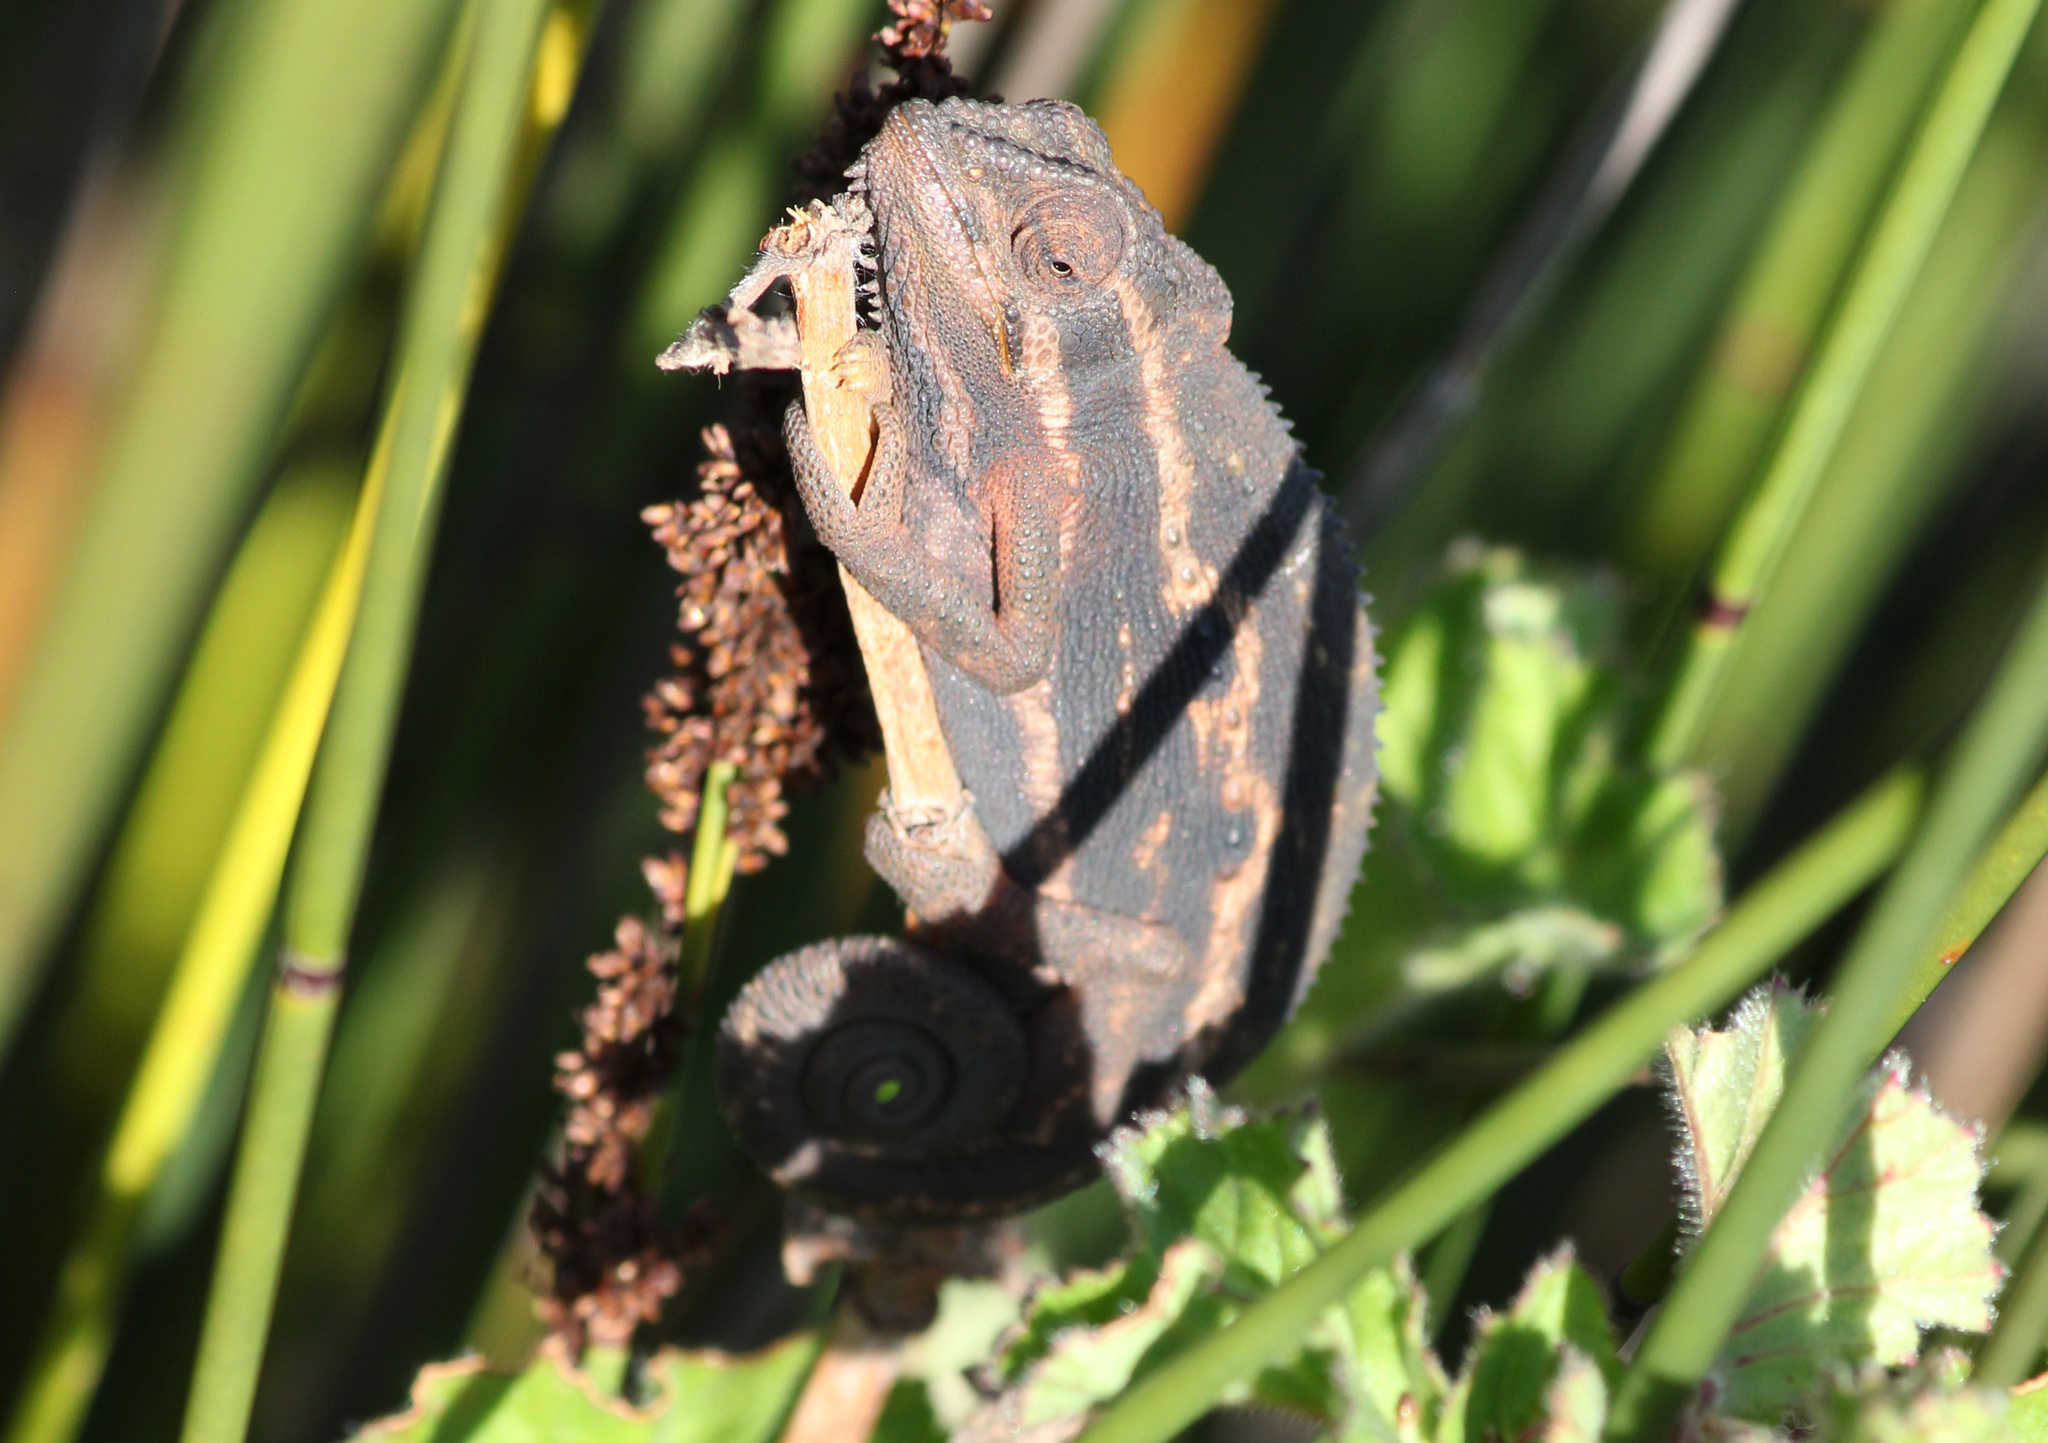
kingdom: Animalia
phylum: Chordata
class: Squamata
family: Chamaeleonidae
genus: Bradypodion
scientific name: Bradypodion pumilum
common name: Cape dwarf chameleon
